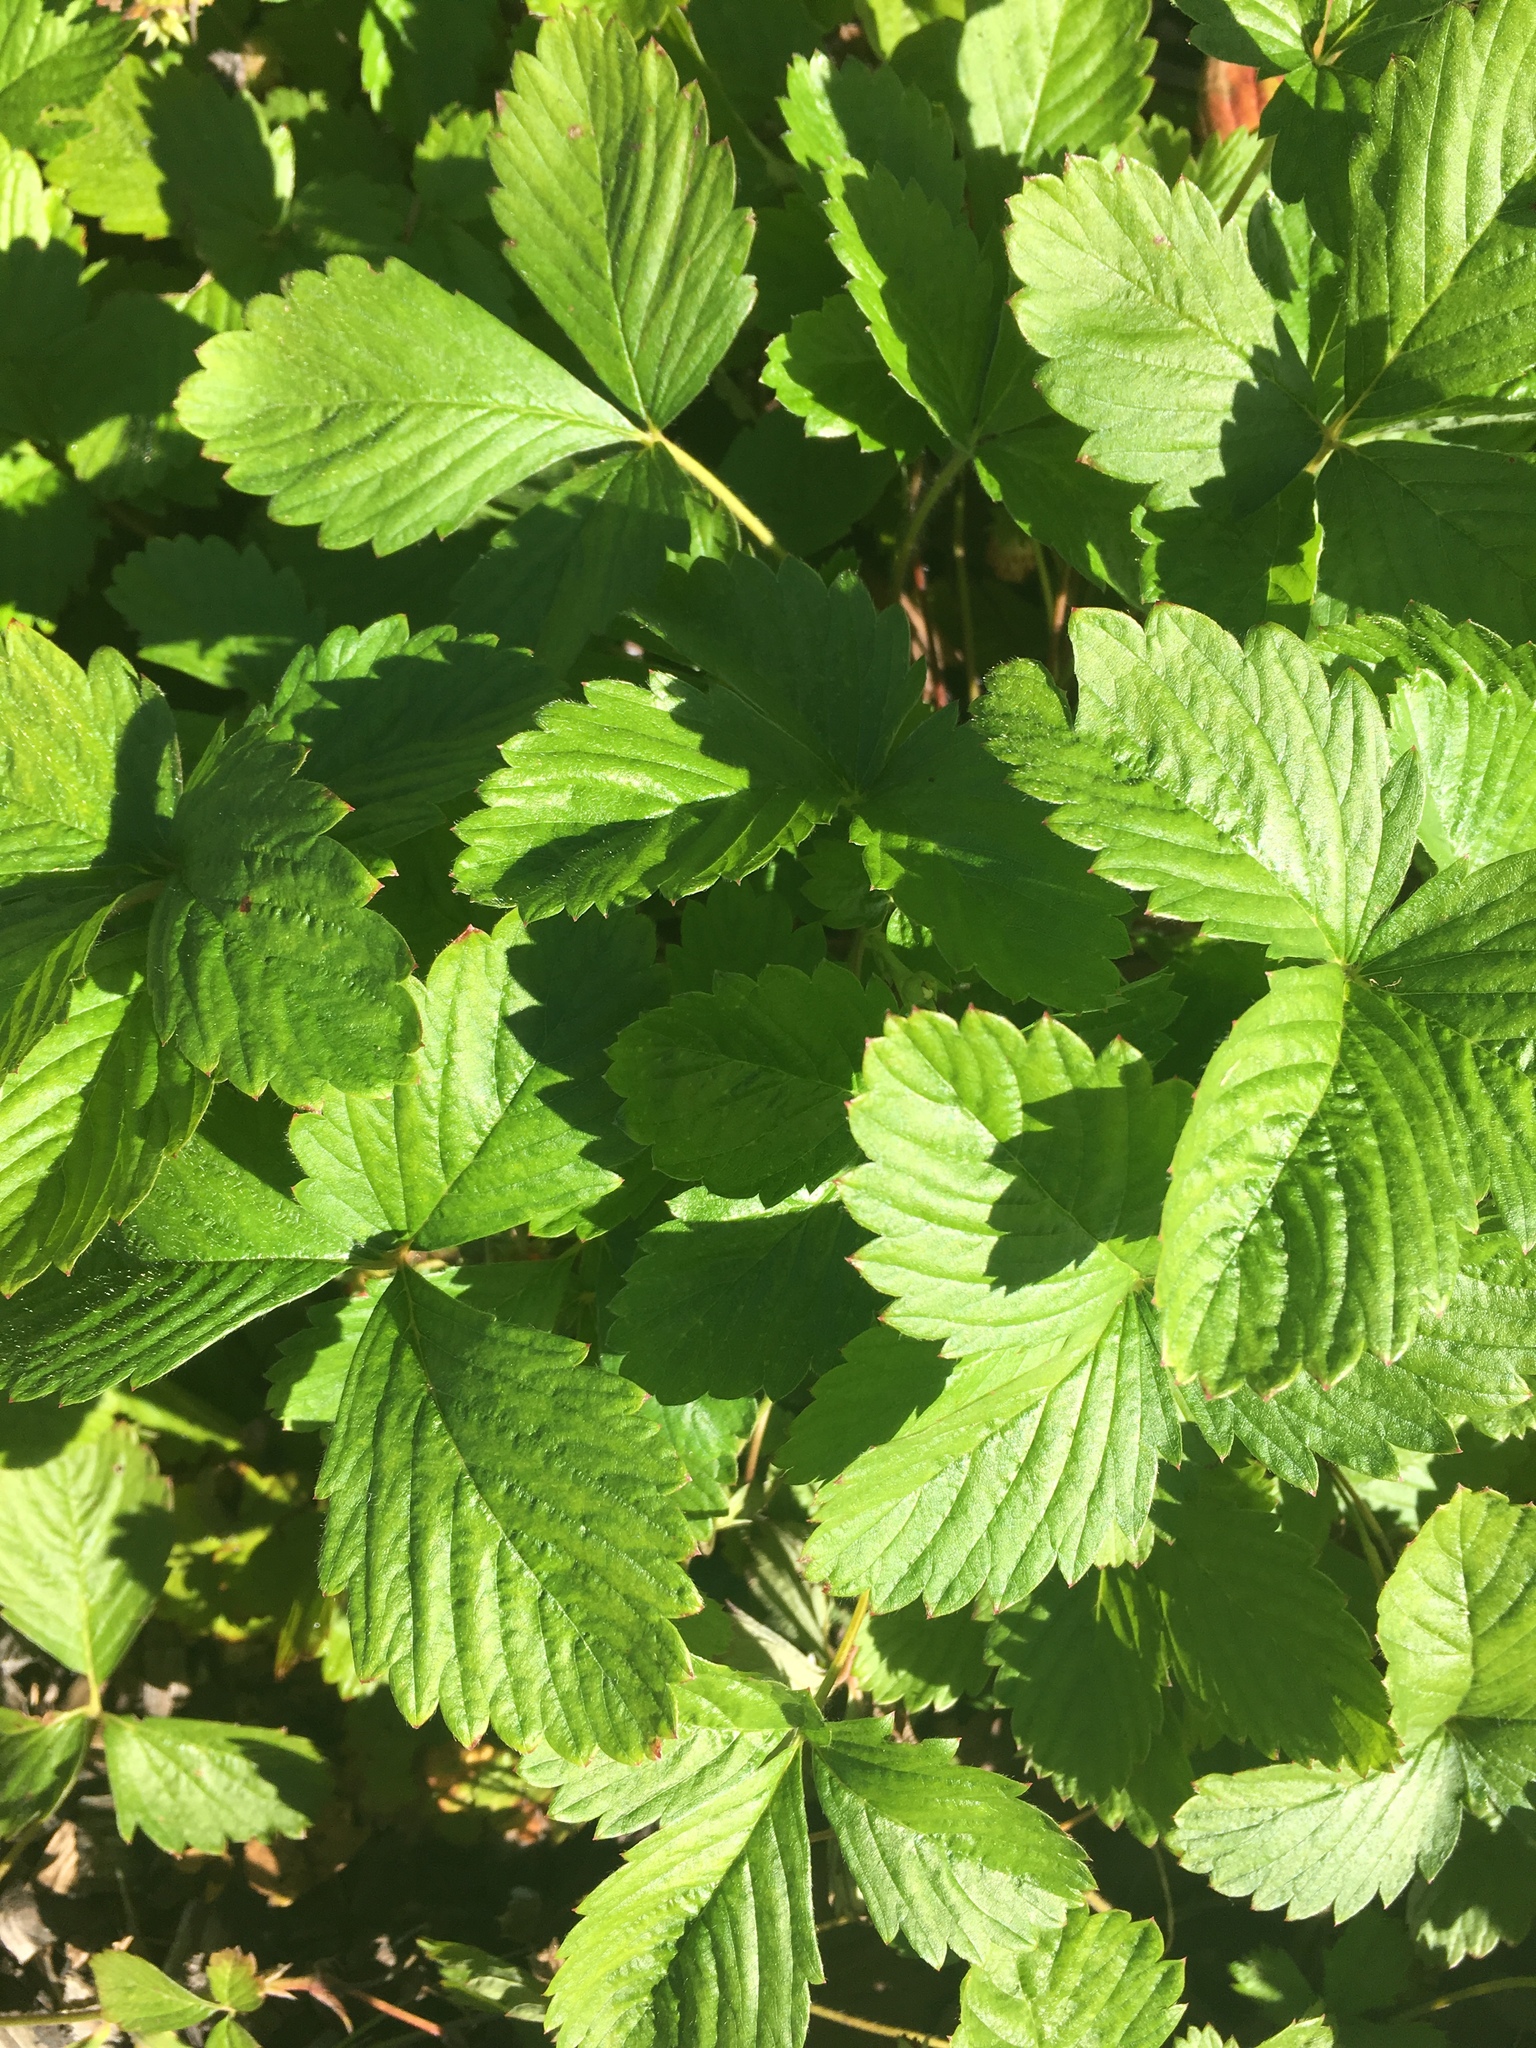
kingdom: Plantae
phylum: Tracheophyta
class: Magnoliopsida
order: Rosales
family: Rosaceae
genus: Fragaria
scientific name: Fragaria vesca
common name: Wild strawberry
